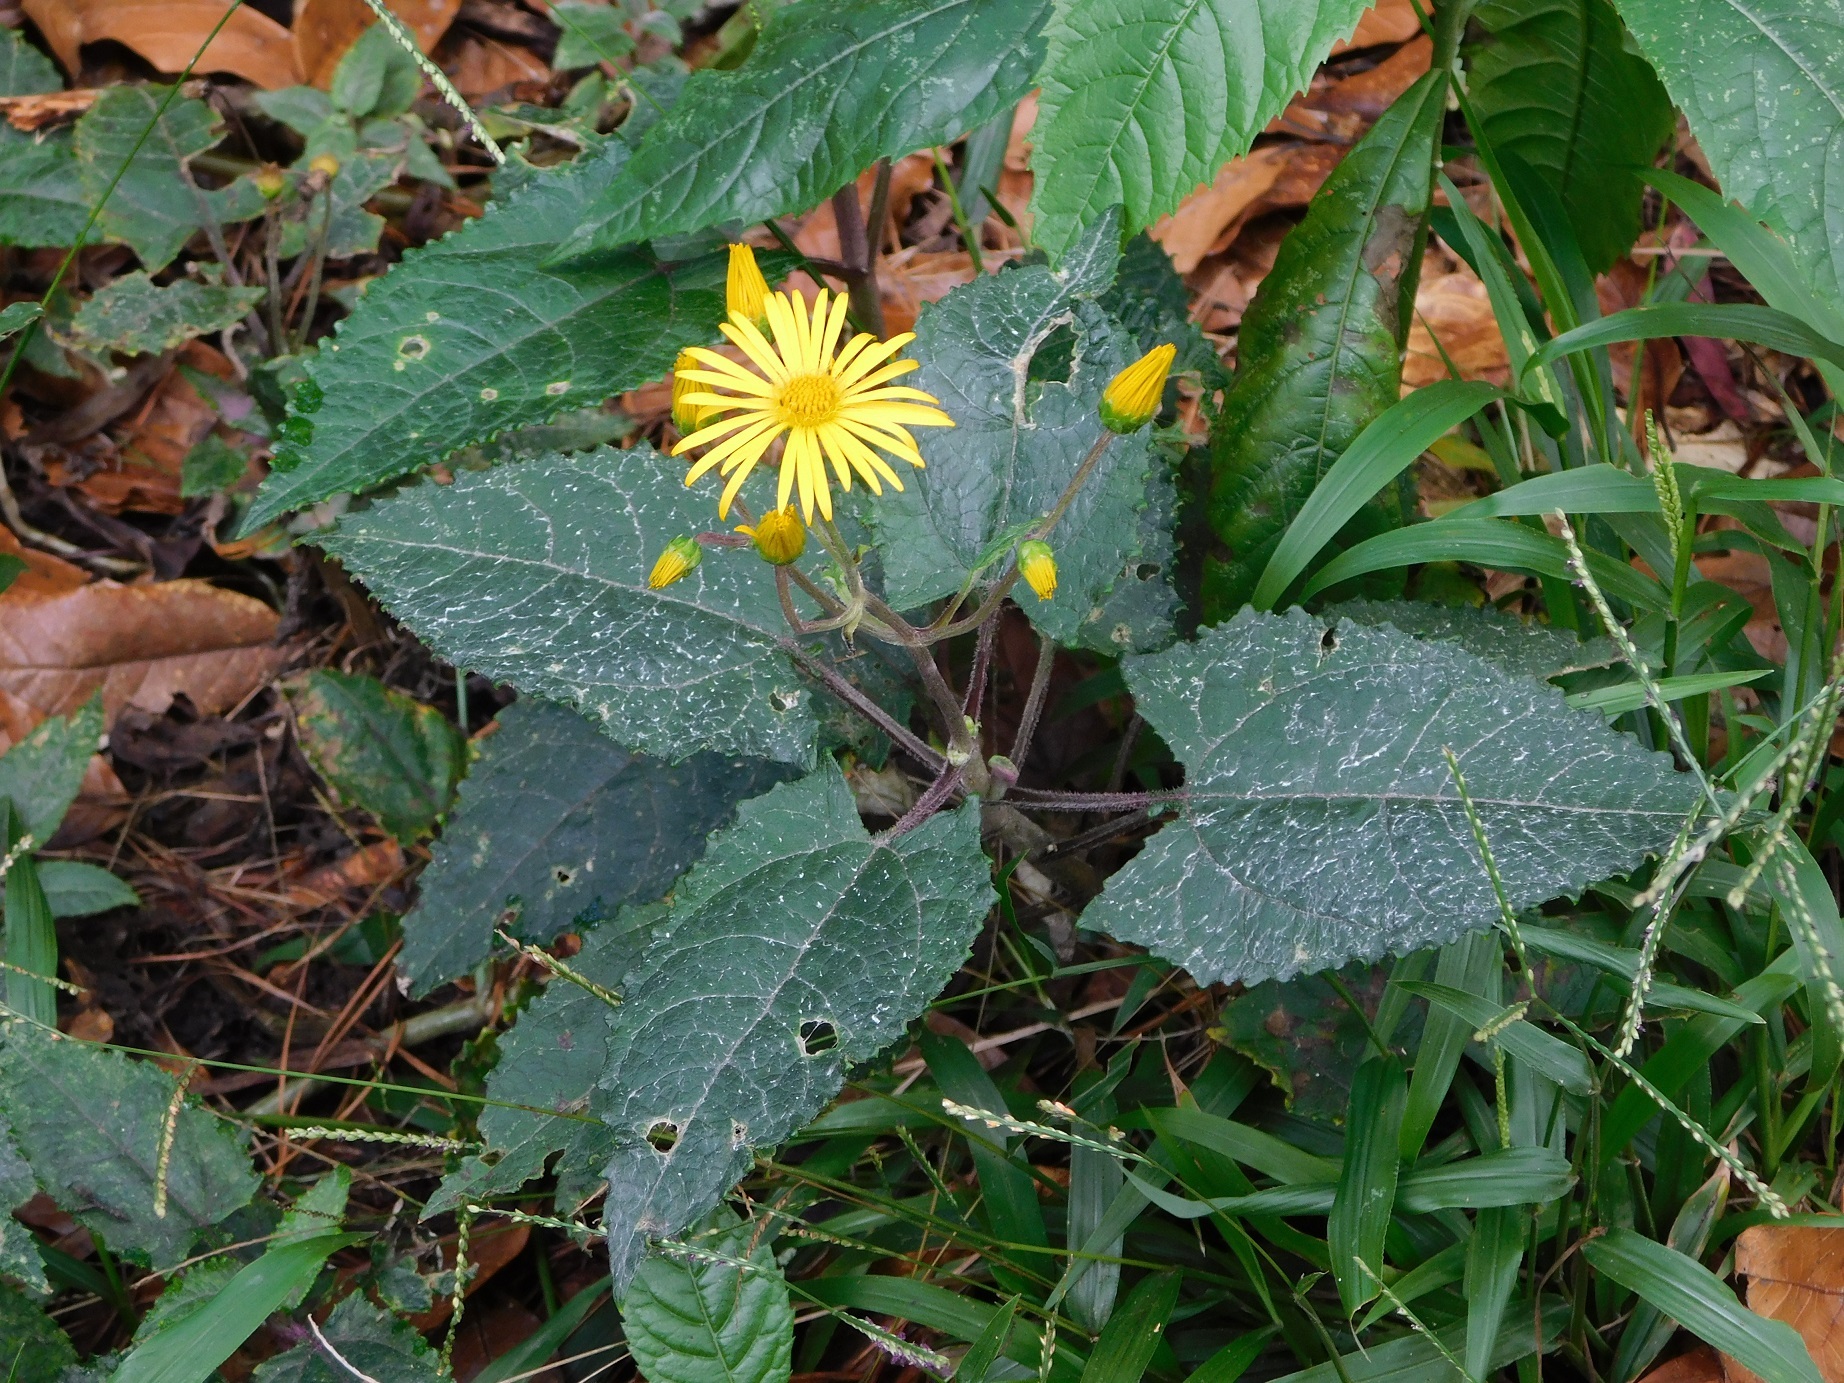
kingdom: Plantae
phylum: Tracheophyta
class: Magnoliopsida
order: Asterales
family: Asteraceae
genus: Munnozia
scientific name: Munnozia senecionidis
